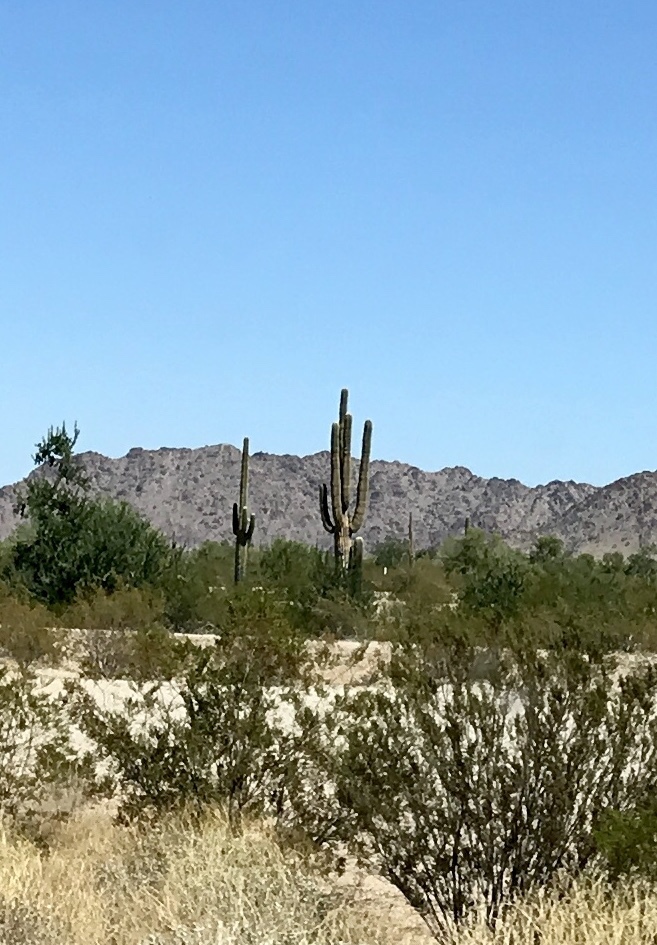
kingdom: Plantae
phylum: Tracheophyta
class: Magnoliopsida
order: Caryophyllales
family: Cactaceae
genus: Carnegiea
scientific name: Carnegiea gigantea
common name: Saguaro
